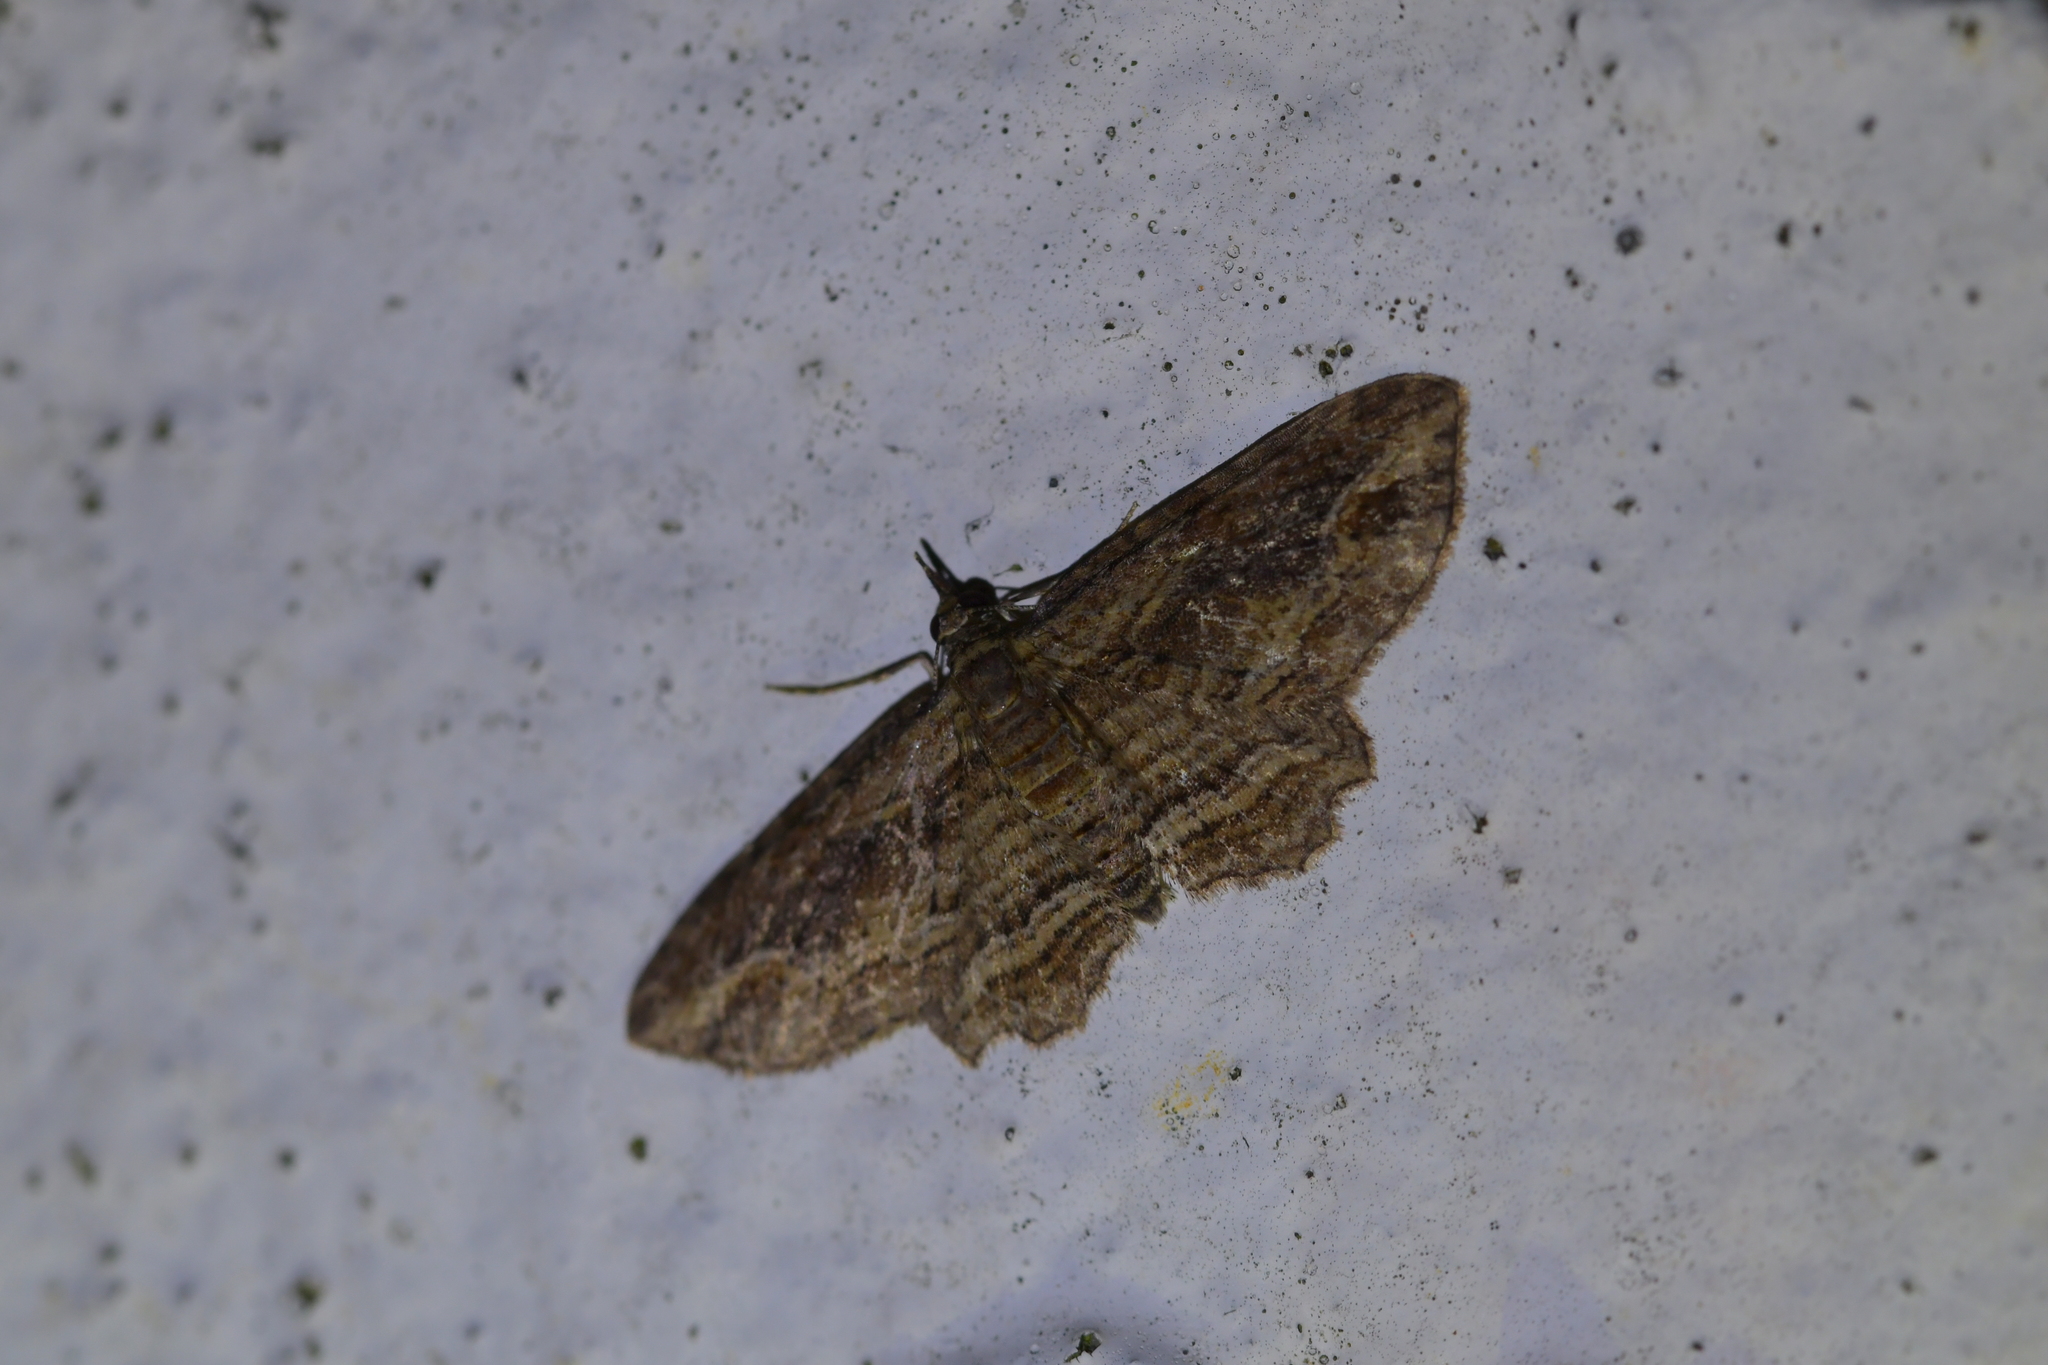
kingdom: Animalia
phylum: Arthropoda
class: Insecta
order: Lepidoptera
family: Geometridae
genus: Chloroclystis
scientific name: Chloroclystis filata
